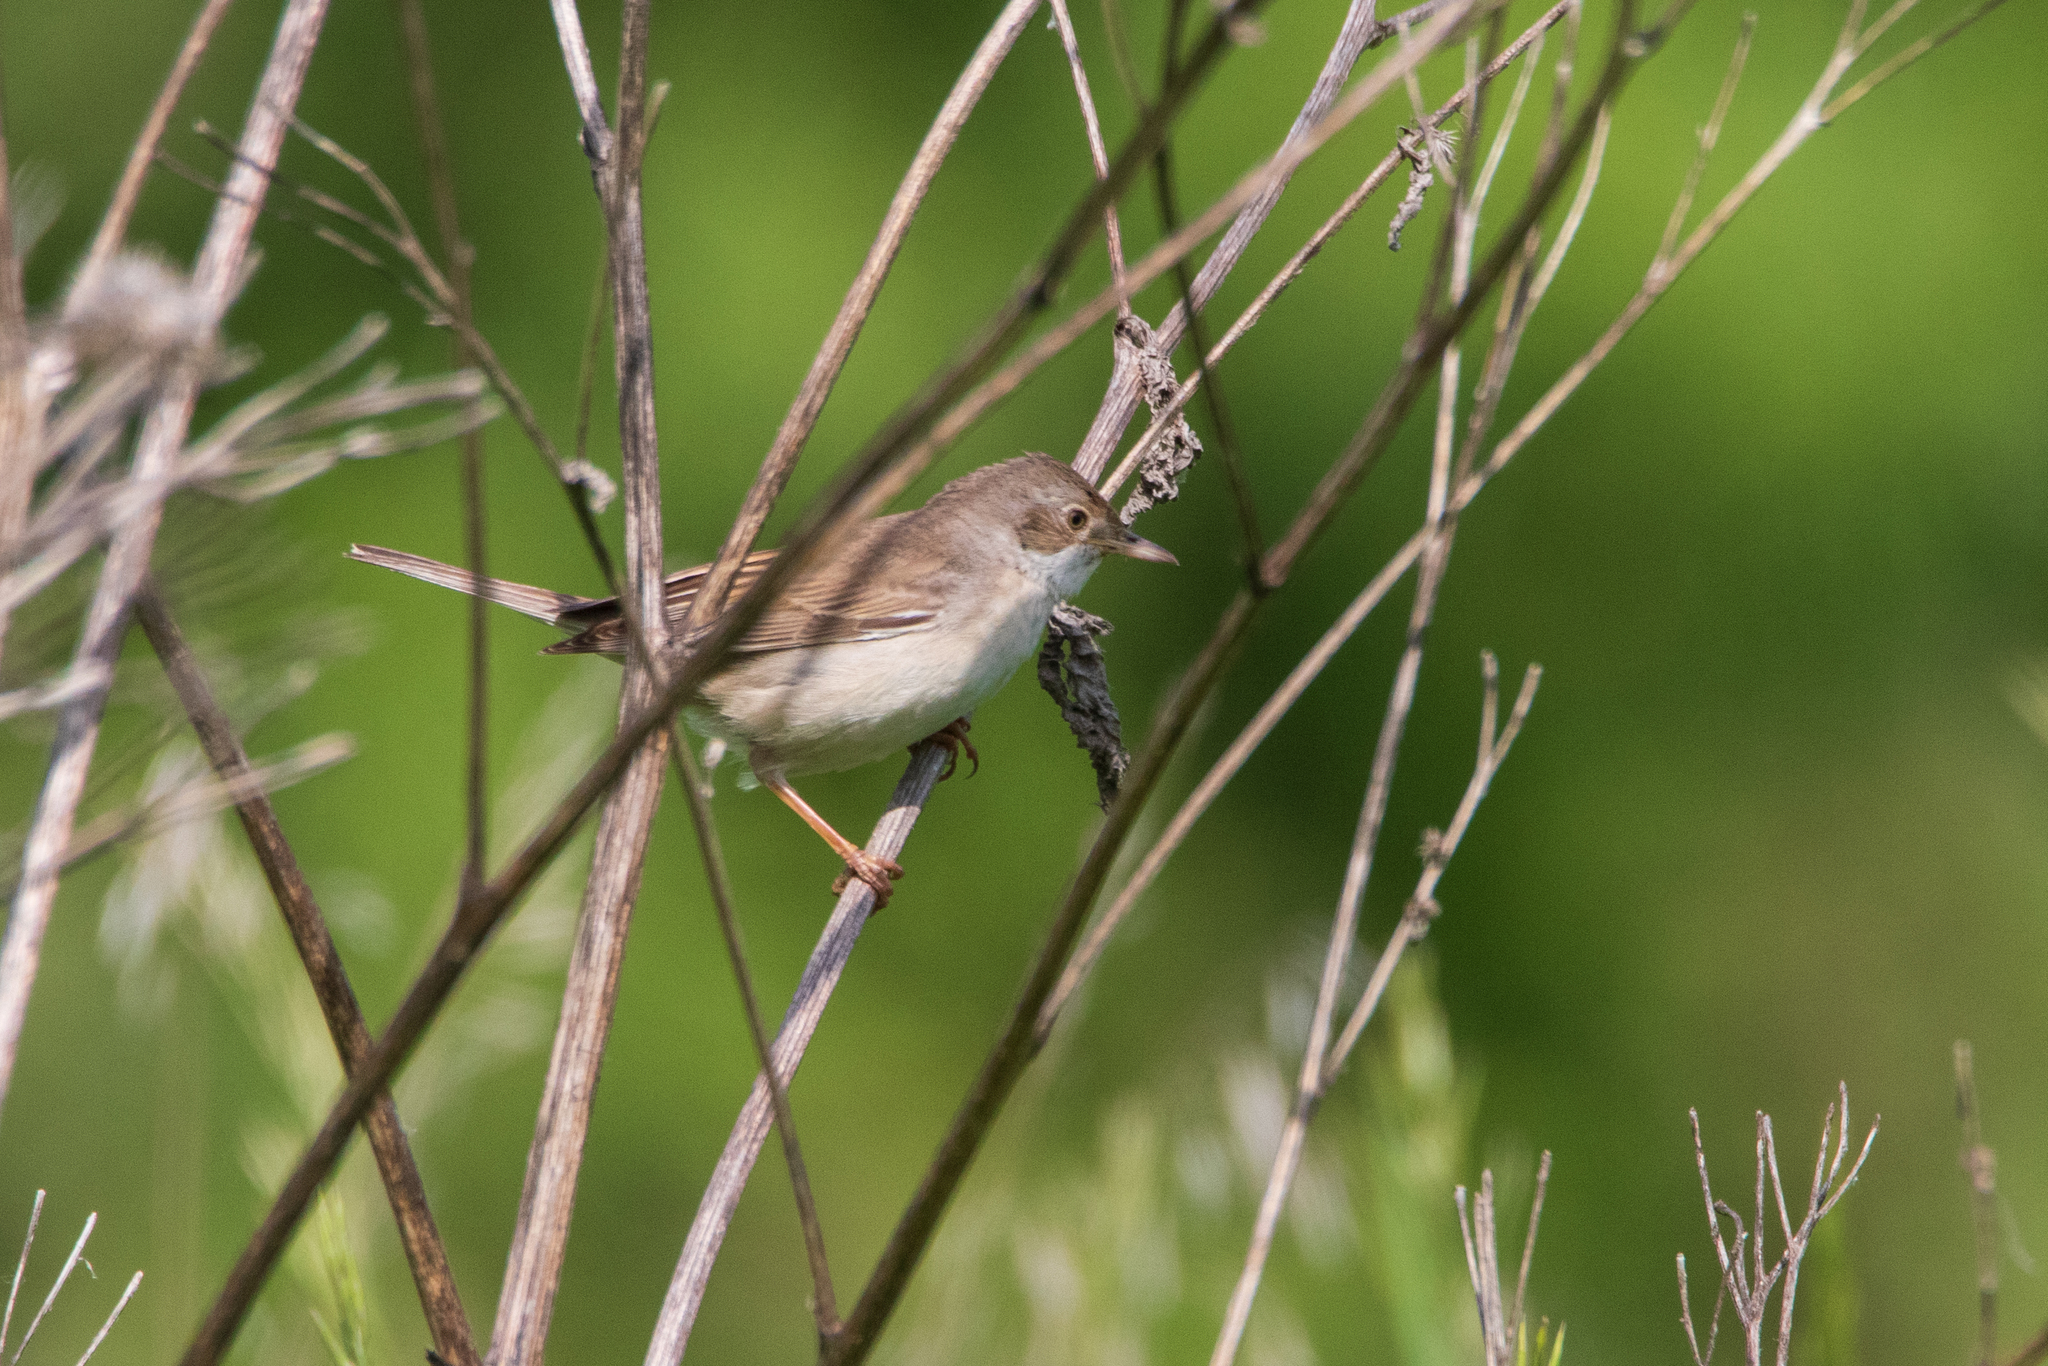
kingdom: Animalia
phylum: Chordata
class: Aves
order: Passeriformes
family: Sylviidae
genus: Sylvia
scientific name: Sylvia communis
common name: Common whitethroat
